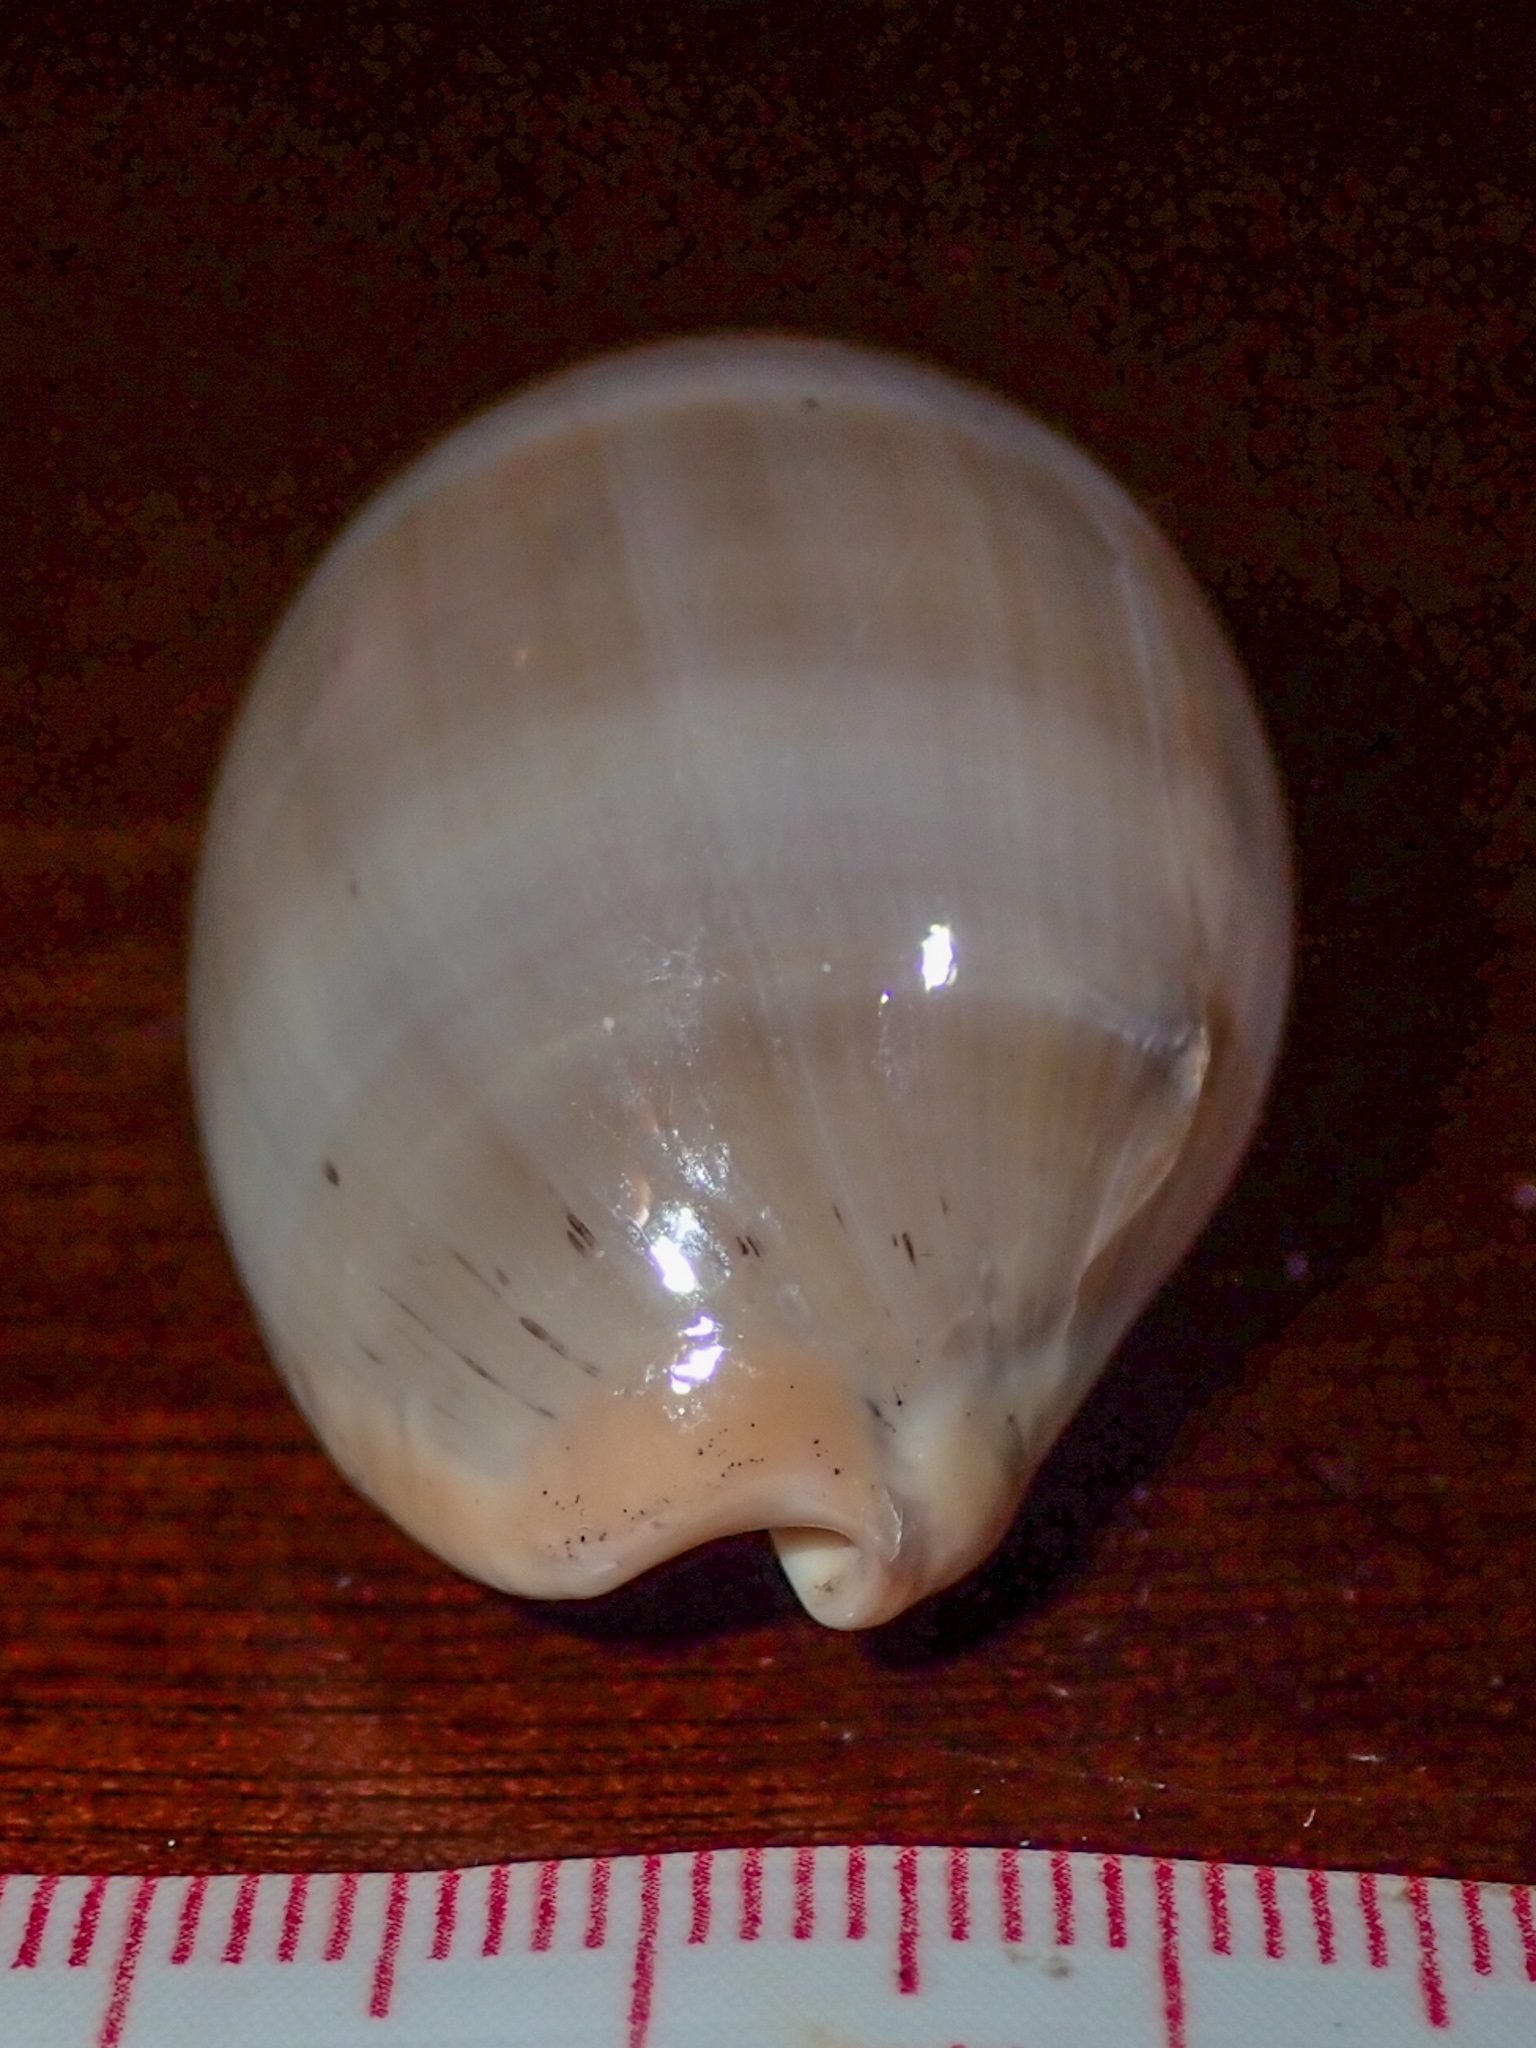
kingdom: Animalia
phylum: Mollusca
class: Gastropoda
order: Littorinimorpha
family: Cypraeidae
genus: Luria
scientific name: Luria cinerea
